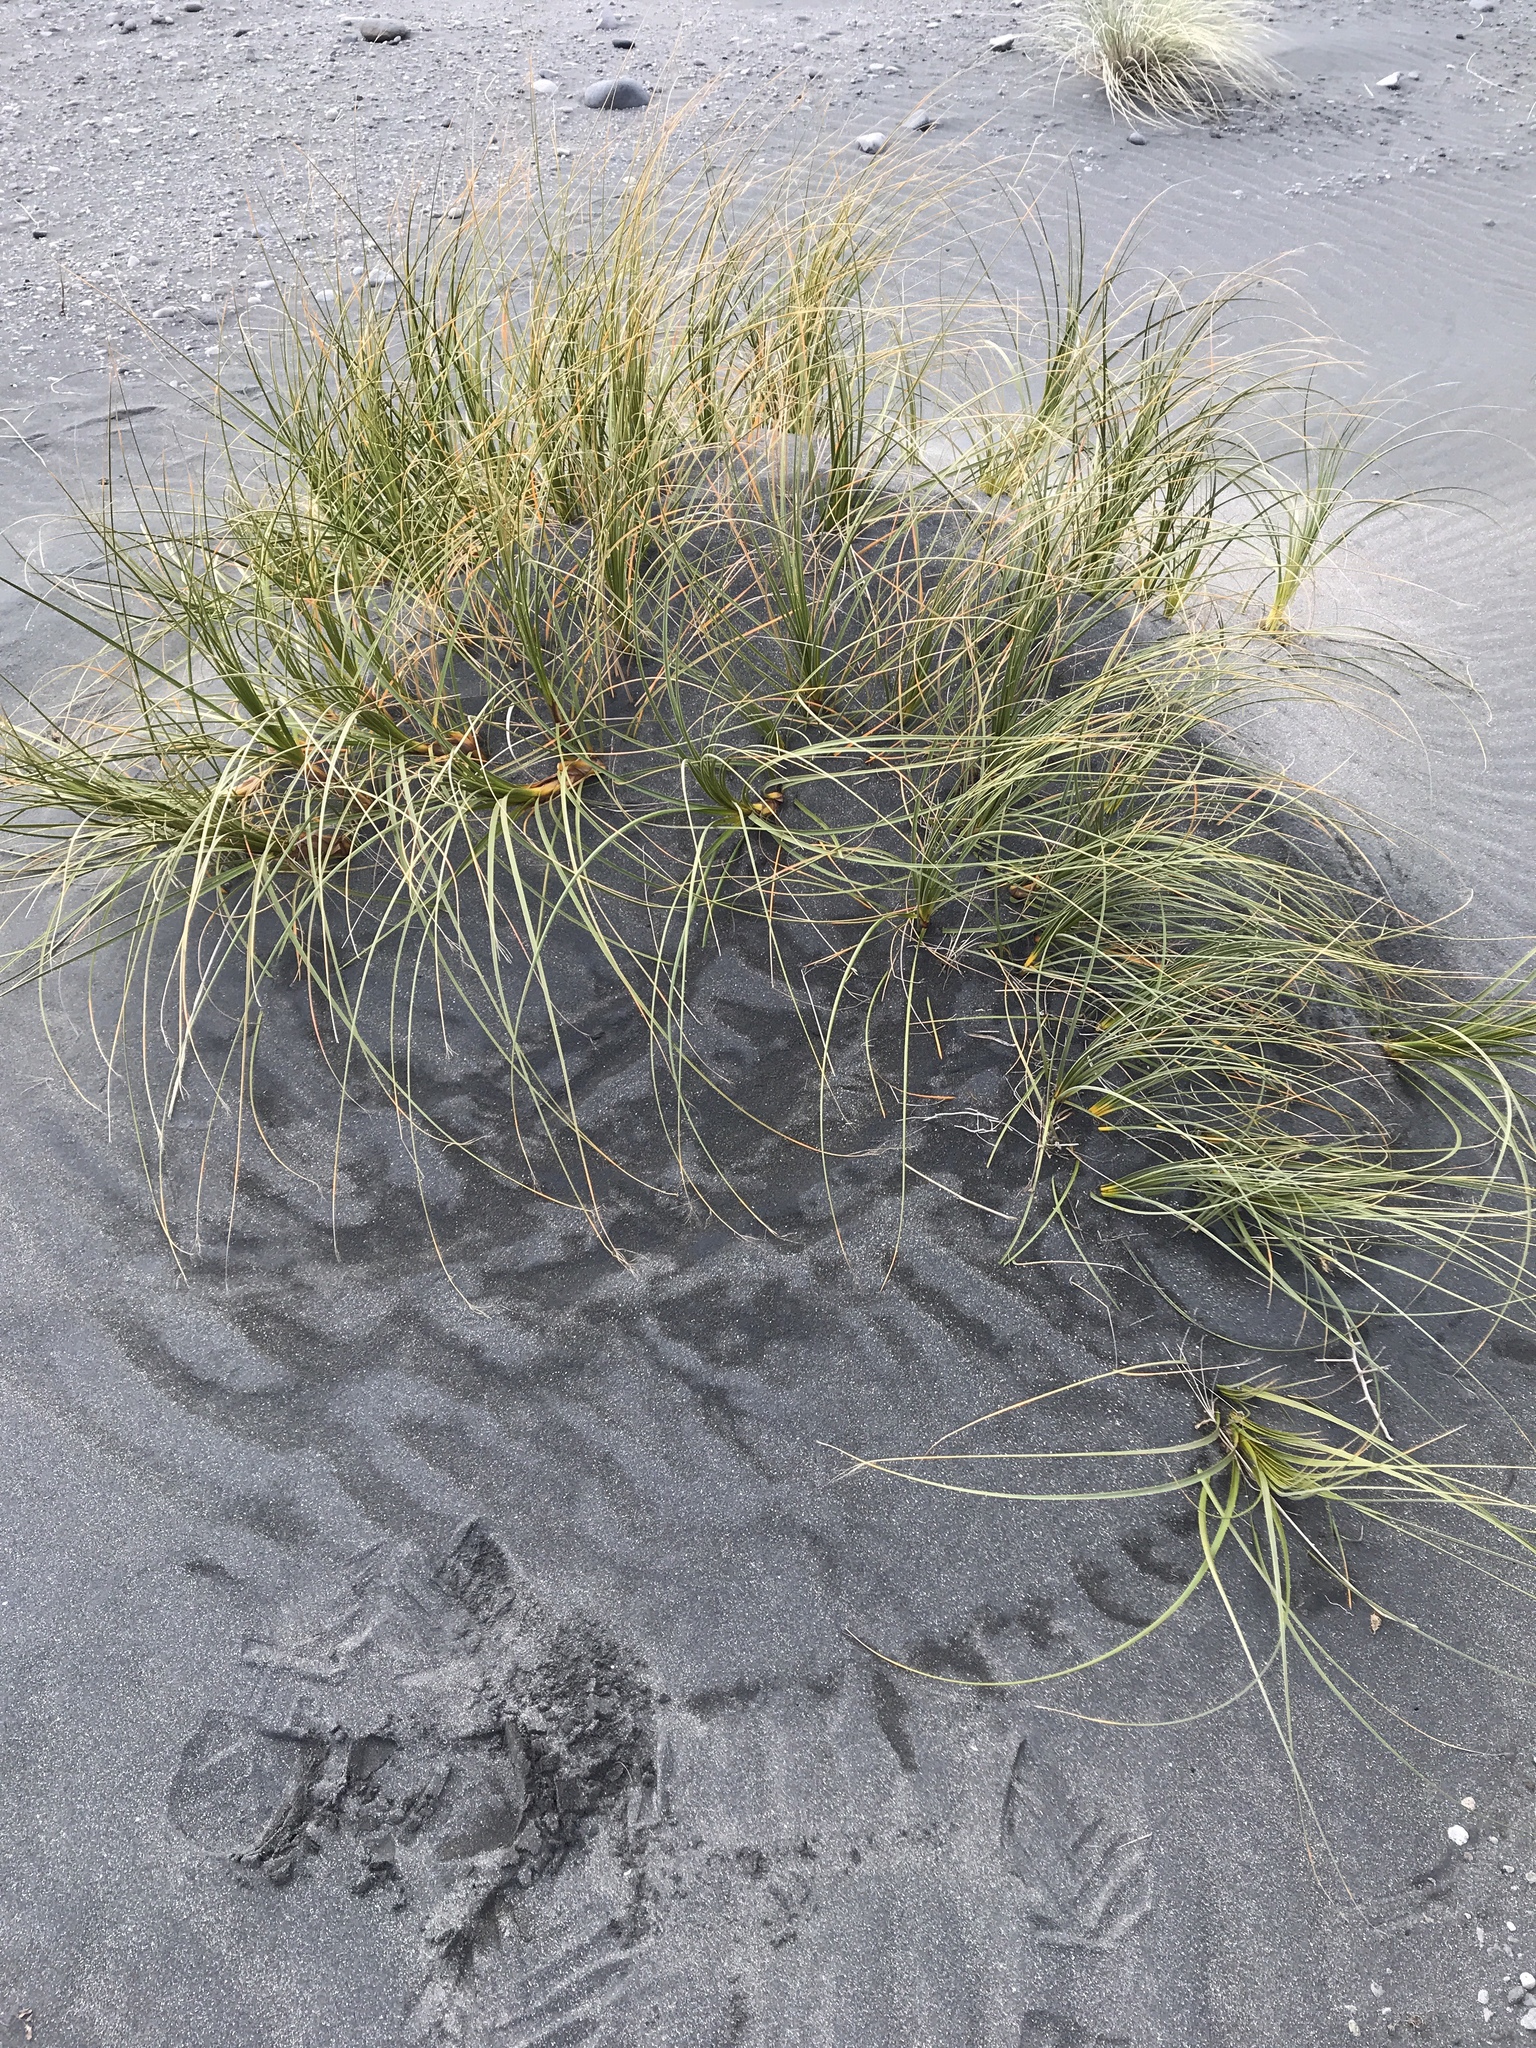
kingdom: Plantae
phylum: Tracheophyta
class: Liliopsida
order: Poales
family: Cyperaceae
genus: Ficinia
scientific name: Ficinia spiralis
